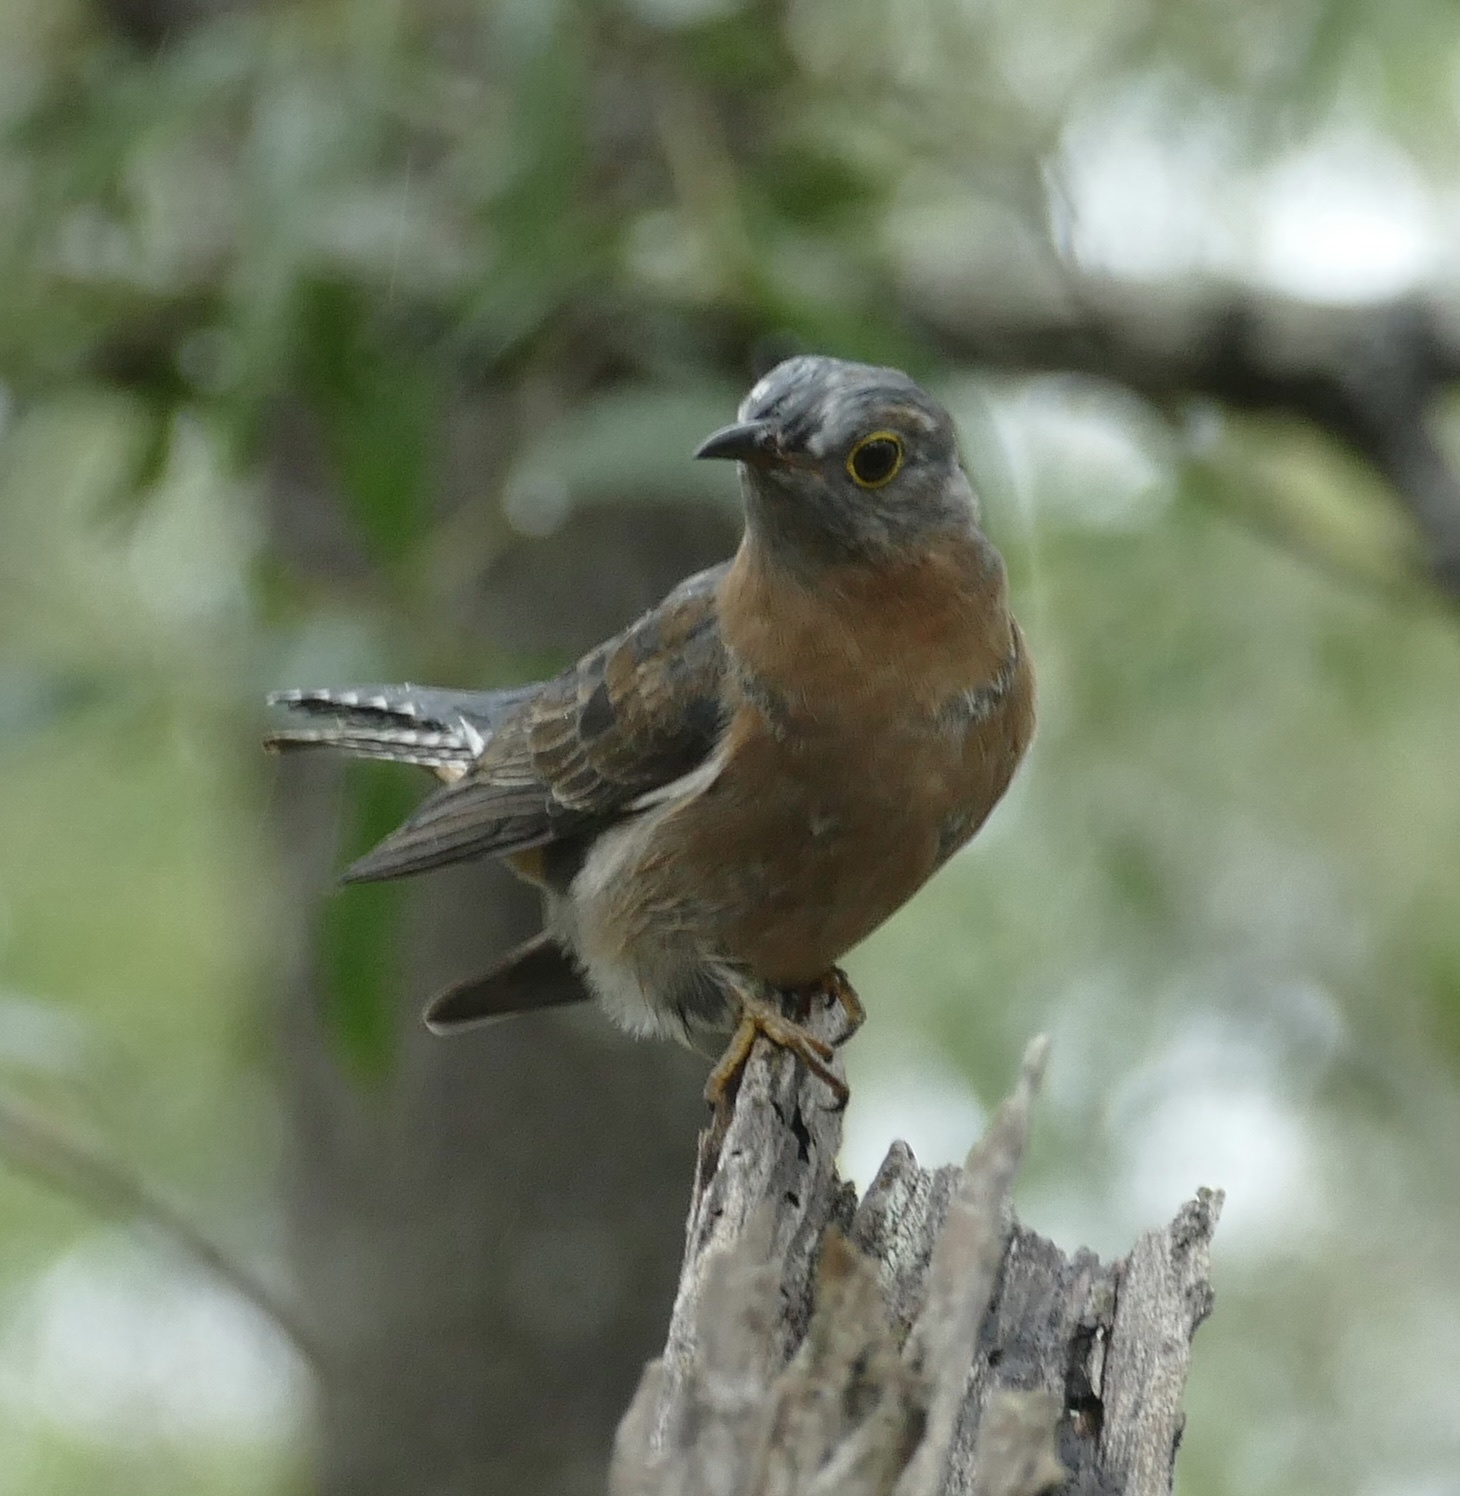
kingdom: Animalia
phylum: Chordata
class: Aves
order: Cuculiformes
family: Cuculidae
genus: Cacomantis
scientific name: Cacomantis flabelliformis
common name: Fan-tailed cuckoo
